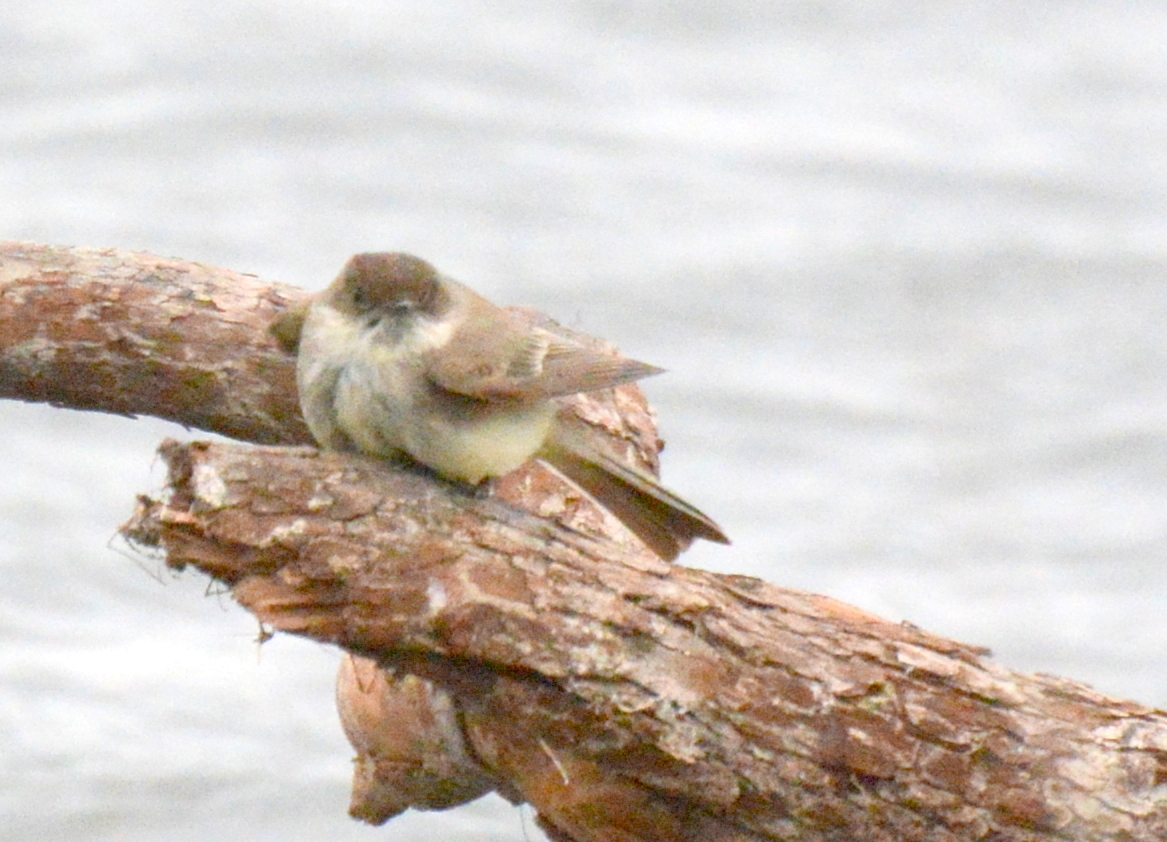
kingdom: Animalia
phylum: Chordata
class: Aves
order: Passeriformes
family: Tyrannidae
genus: Sayornis
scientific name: Sayornis phoebe
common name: Eastern phoebe
